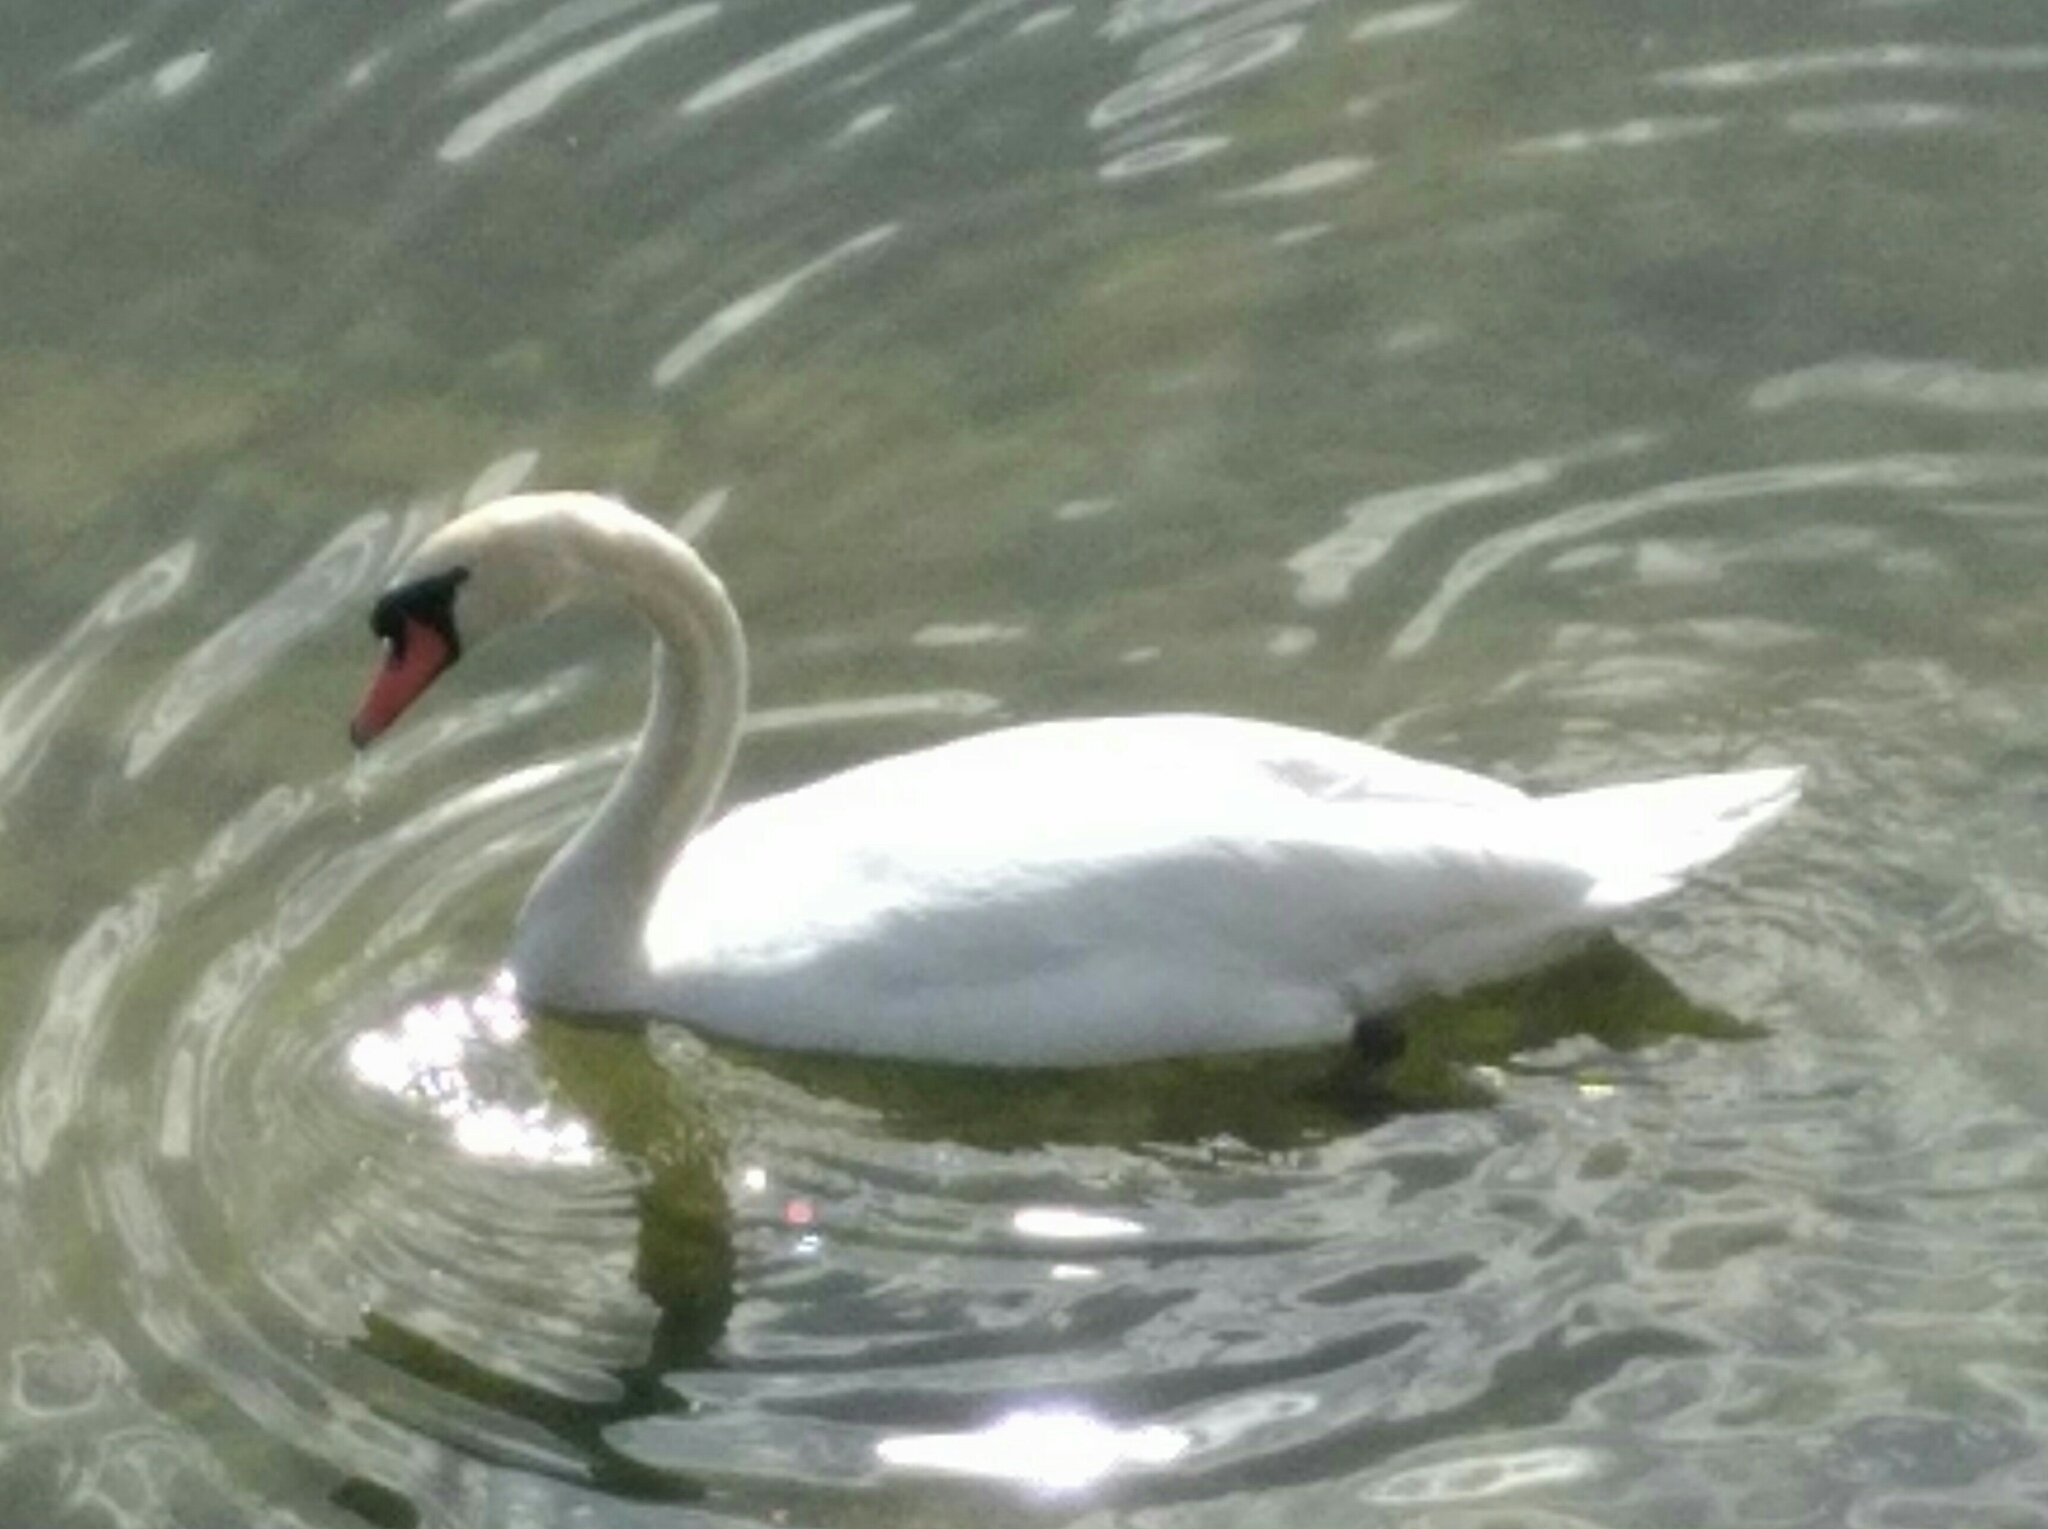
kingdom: Animalia
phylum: Chordata
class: Aves
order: Anseriformes
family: Anatidae
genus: Cygnus
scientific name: Cygnus olor
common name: Mute swan
